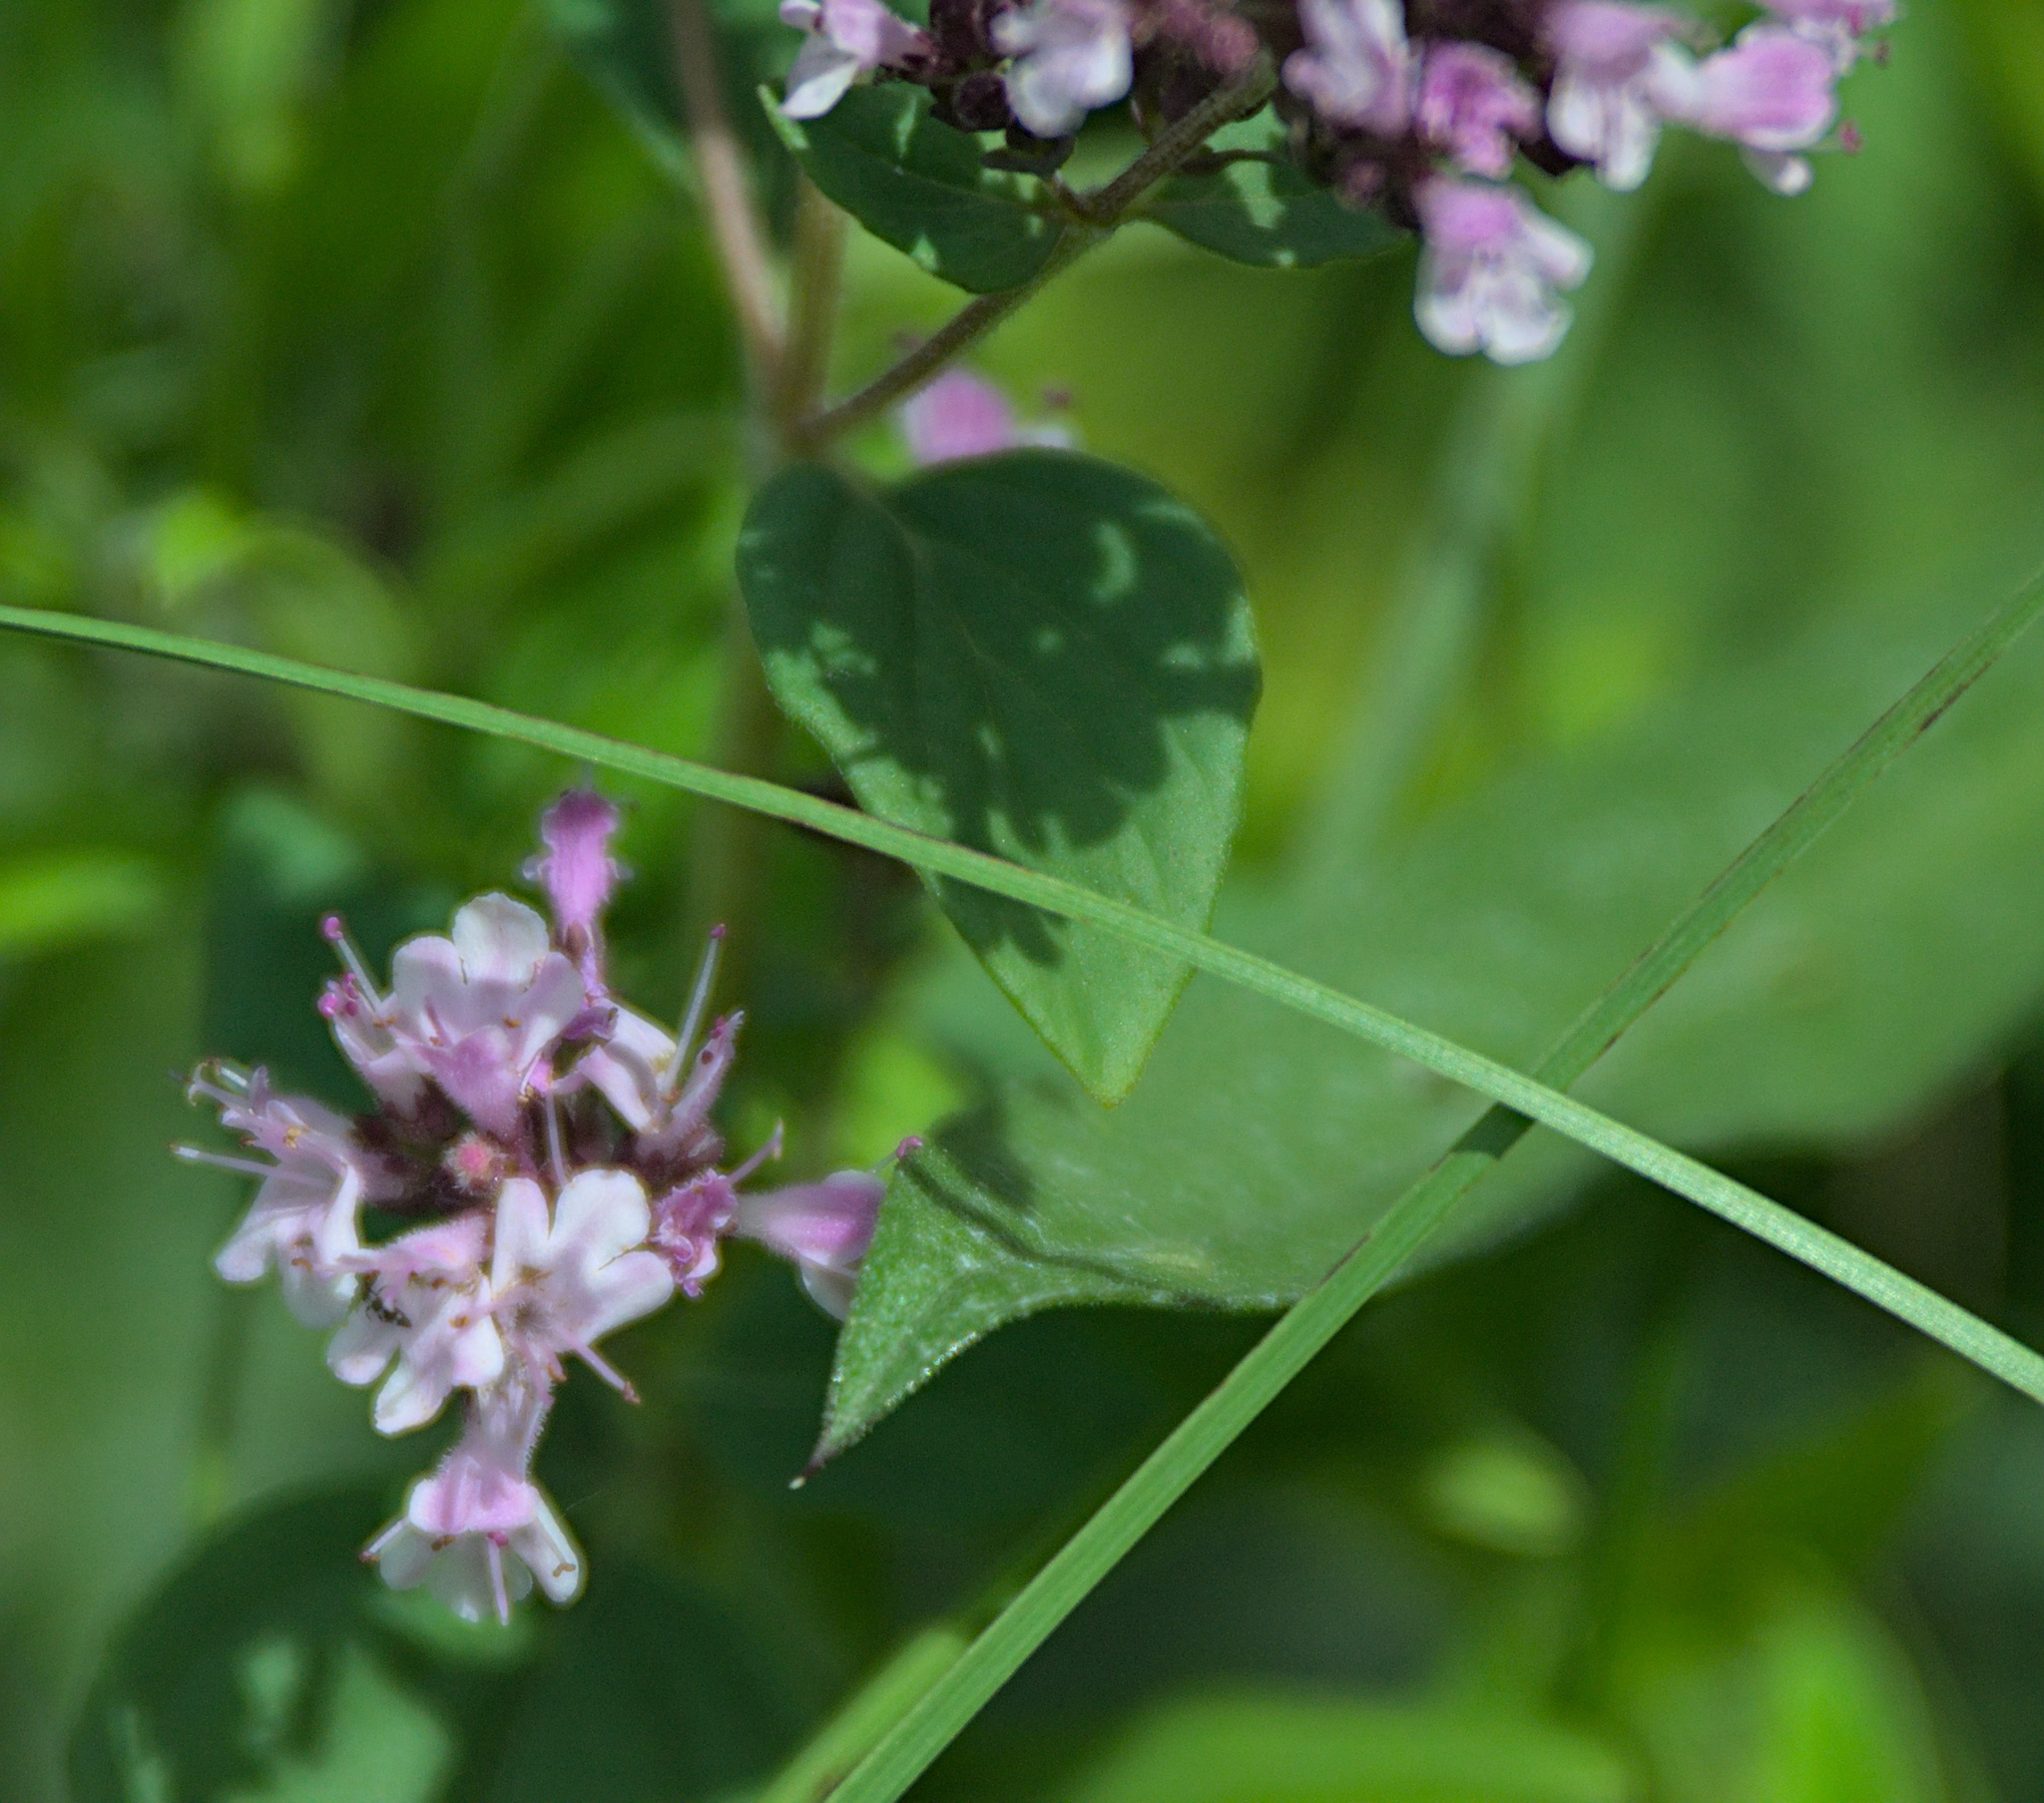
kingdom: Plantae
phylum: Tracheophyta
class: Magnoliopsida
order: Lamiales
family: Lamiaceae
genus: Origanum
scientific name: Origanum vulgare
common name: Wild marjoram
